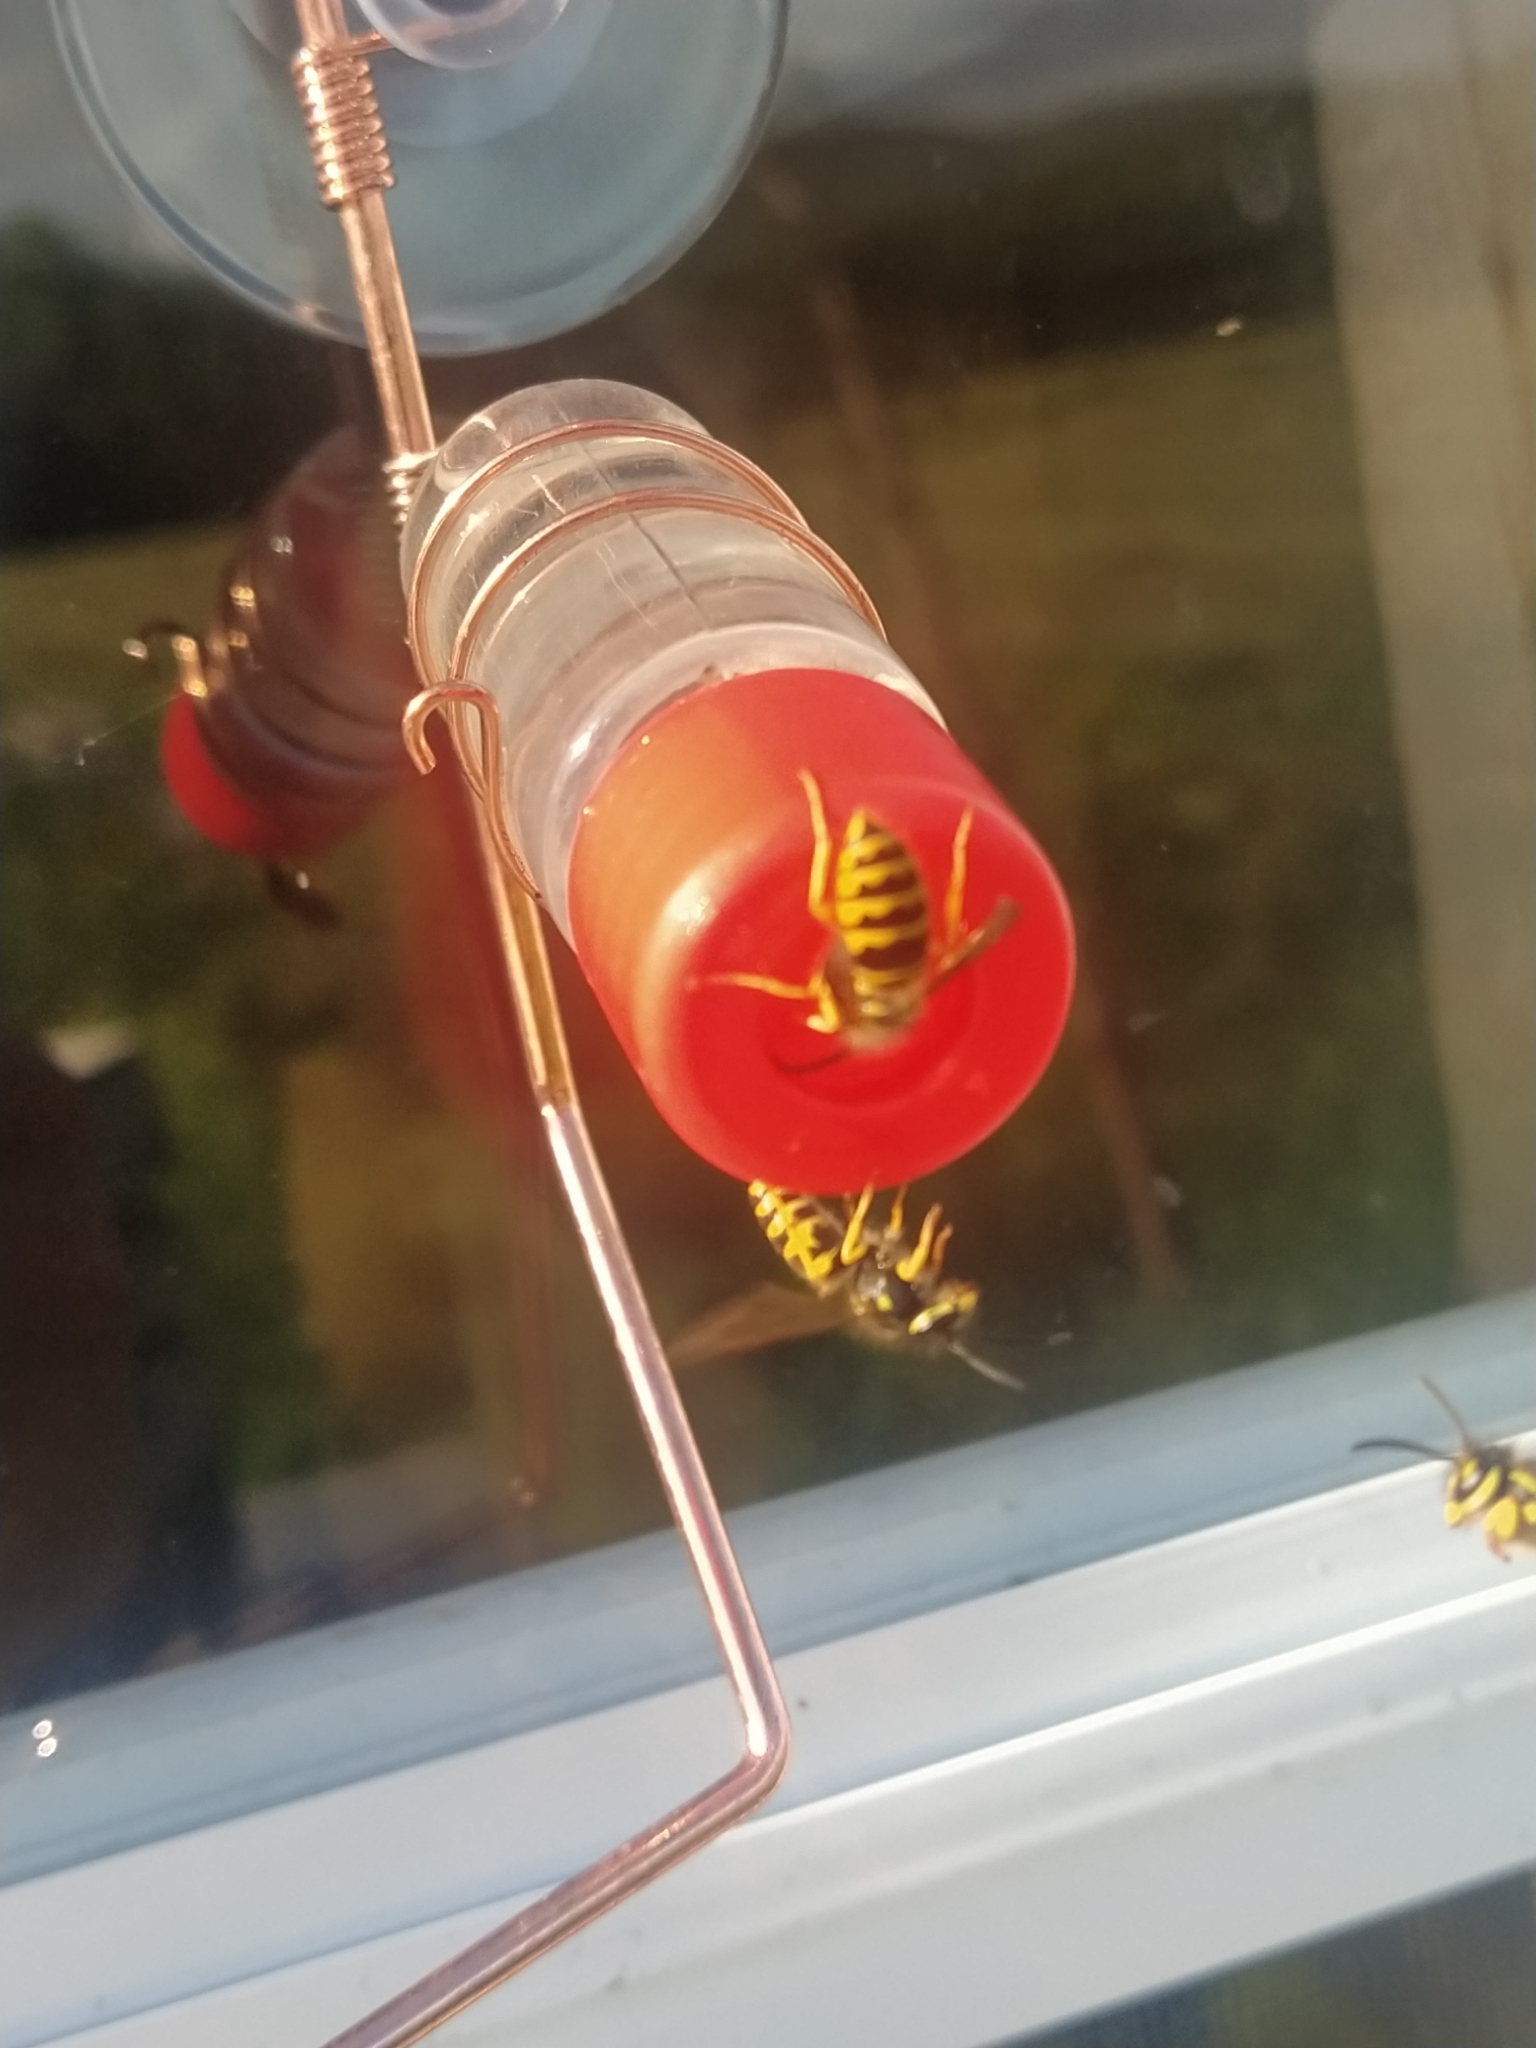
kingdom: Animalia
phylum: Arthropoda
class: Insecta
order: Hymenoptera
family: Vespidae
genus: Vespula
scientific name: Vespula maculifrons
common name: Eastern yellowjacket
